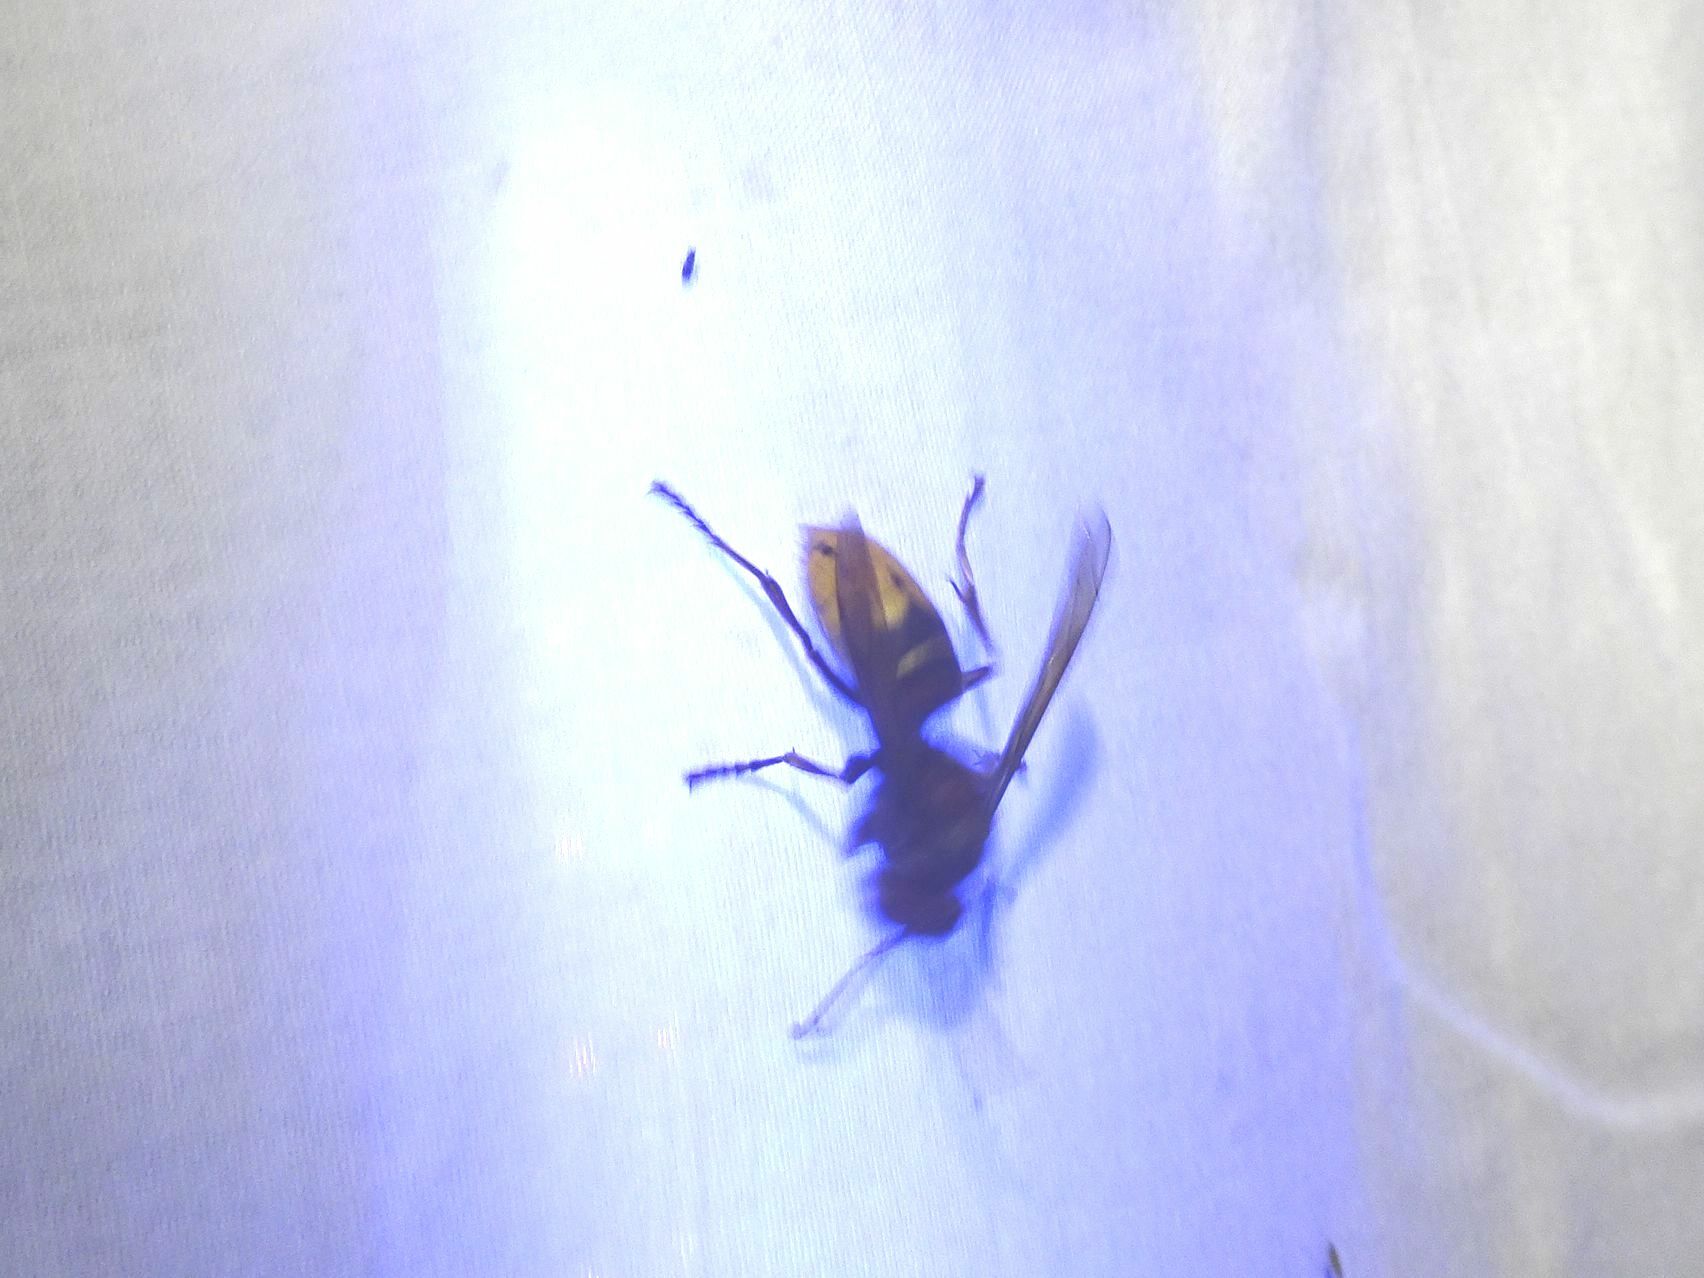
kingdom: Animalia
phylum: Arthropoda
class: Insecta
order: Hymenoptera
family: Vespidae
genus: Vespa
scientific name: Vespa crabro
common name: Hornet
